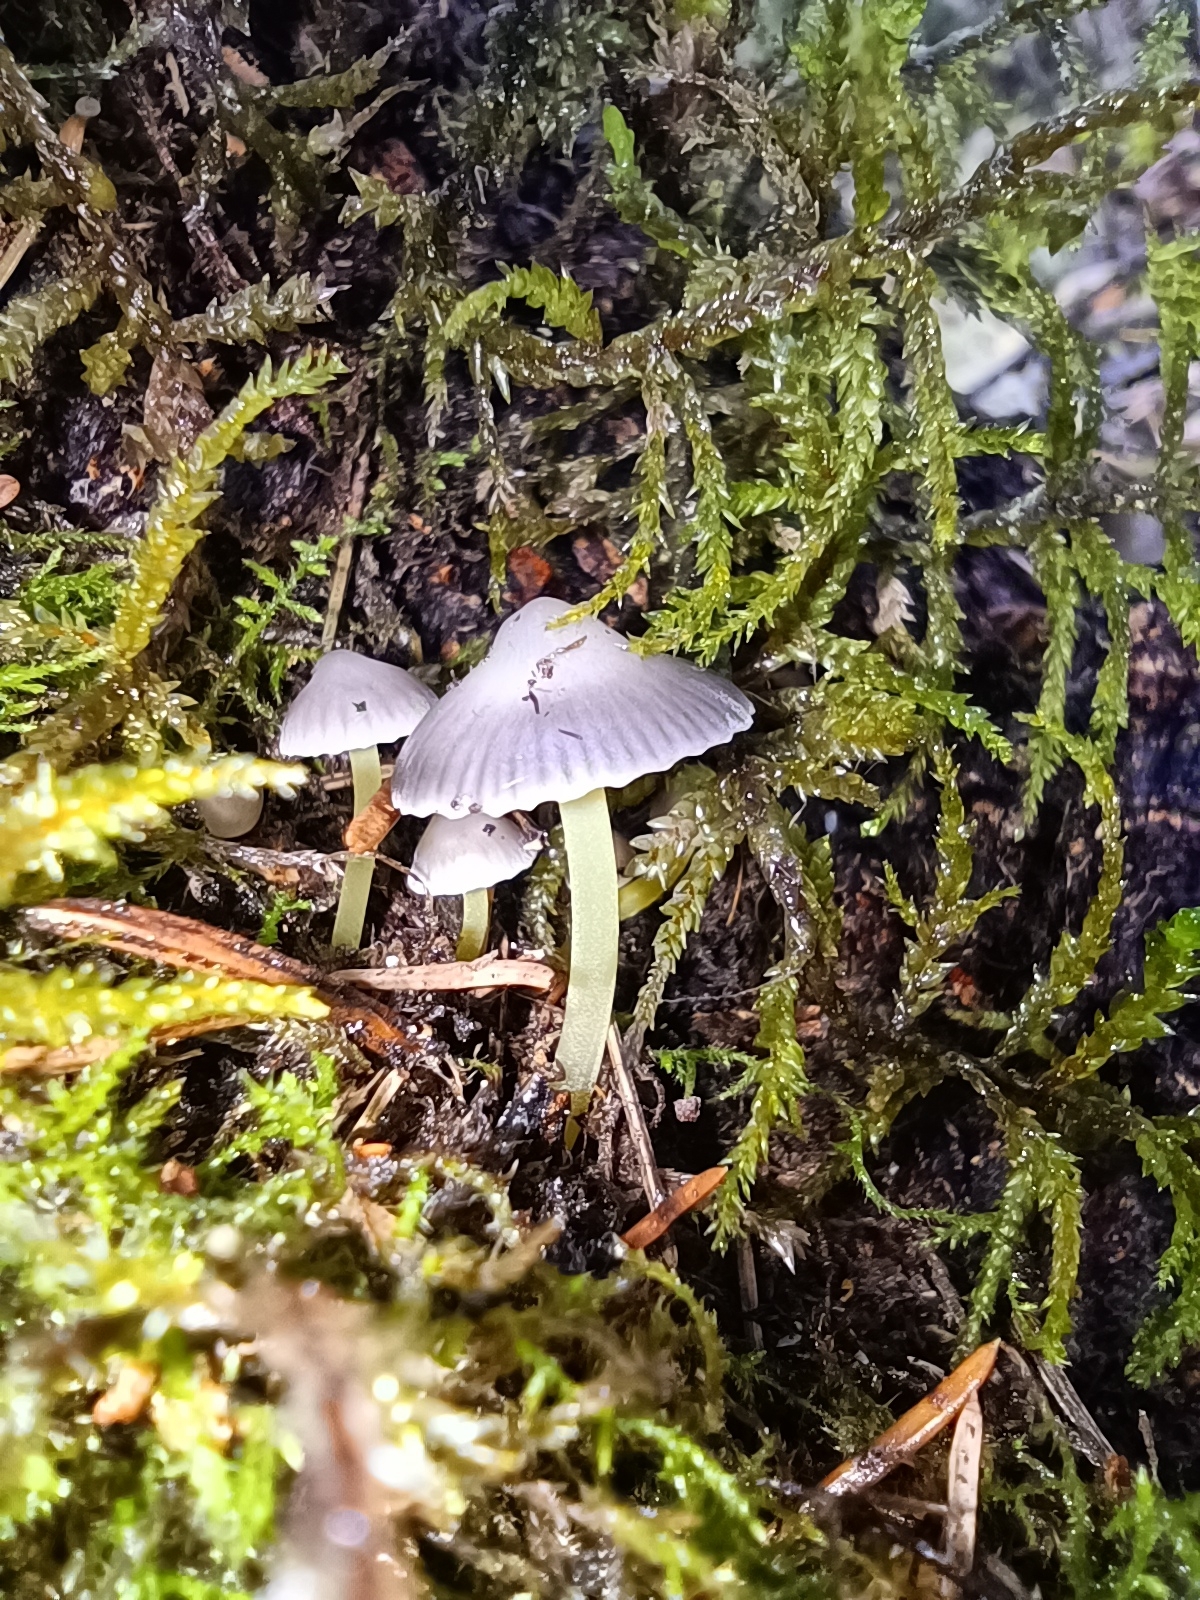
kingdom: Fungi
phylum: Basidiomycota
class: Agaricomycetes
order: Agaricales
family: Mycenaceae
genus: Mycena
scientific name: Mycena epipterygia
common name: Yellowleg bonnet
